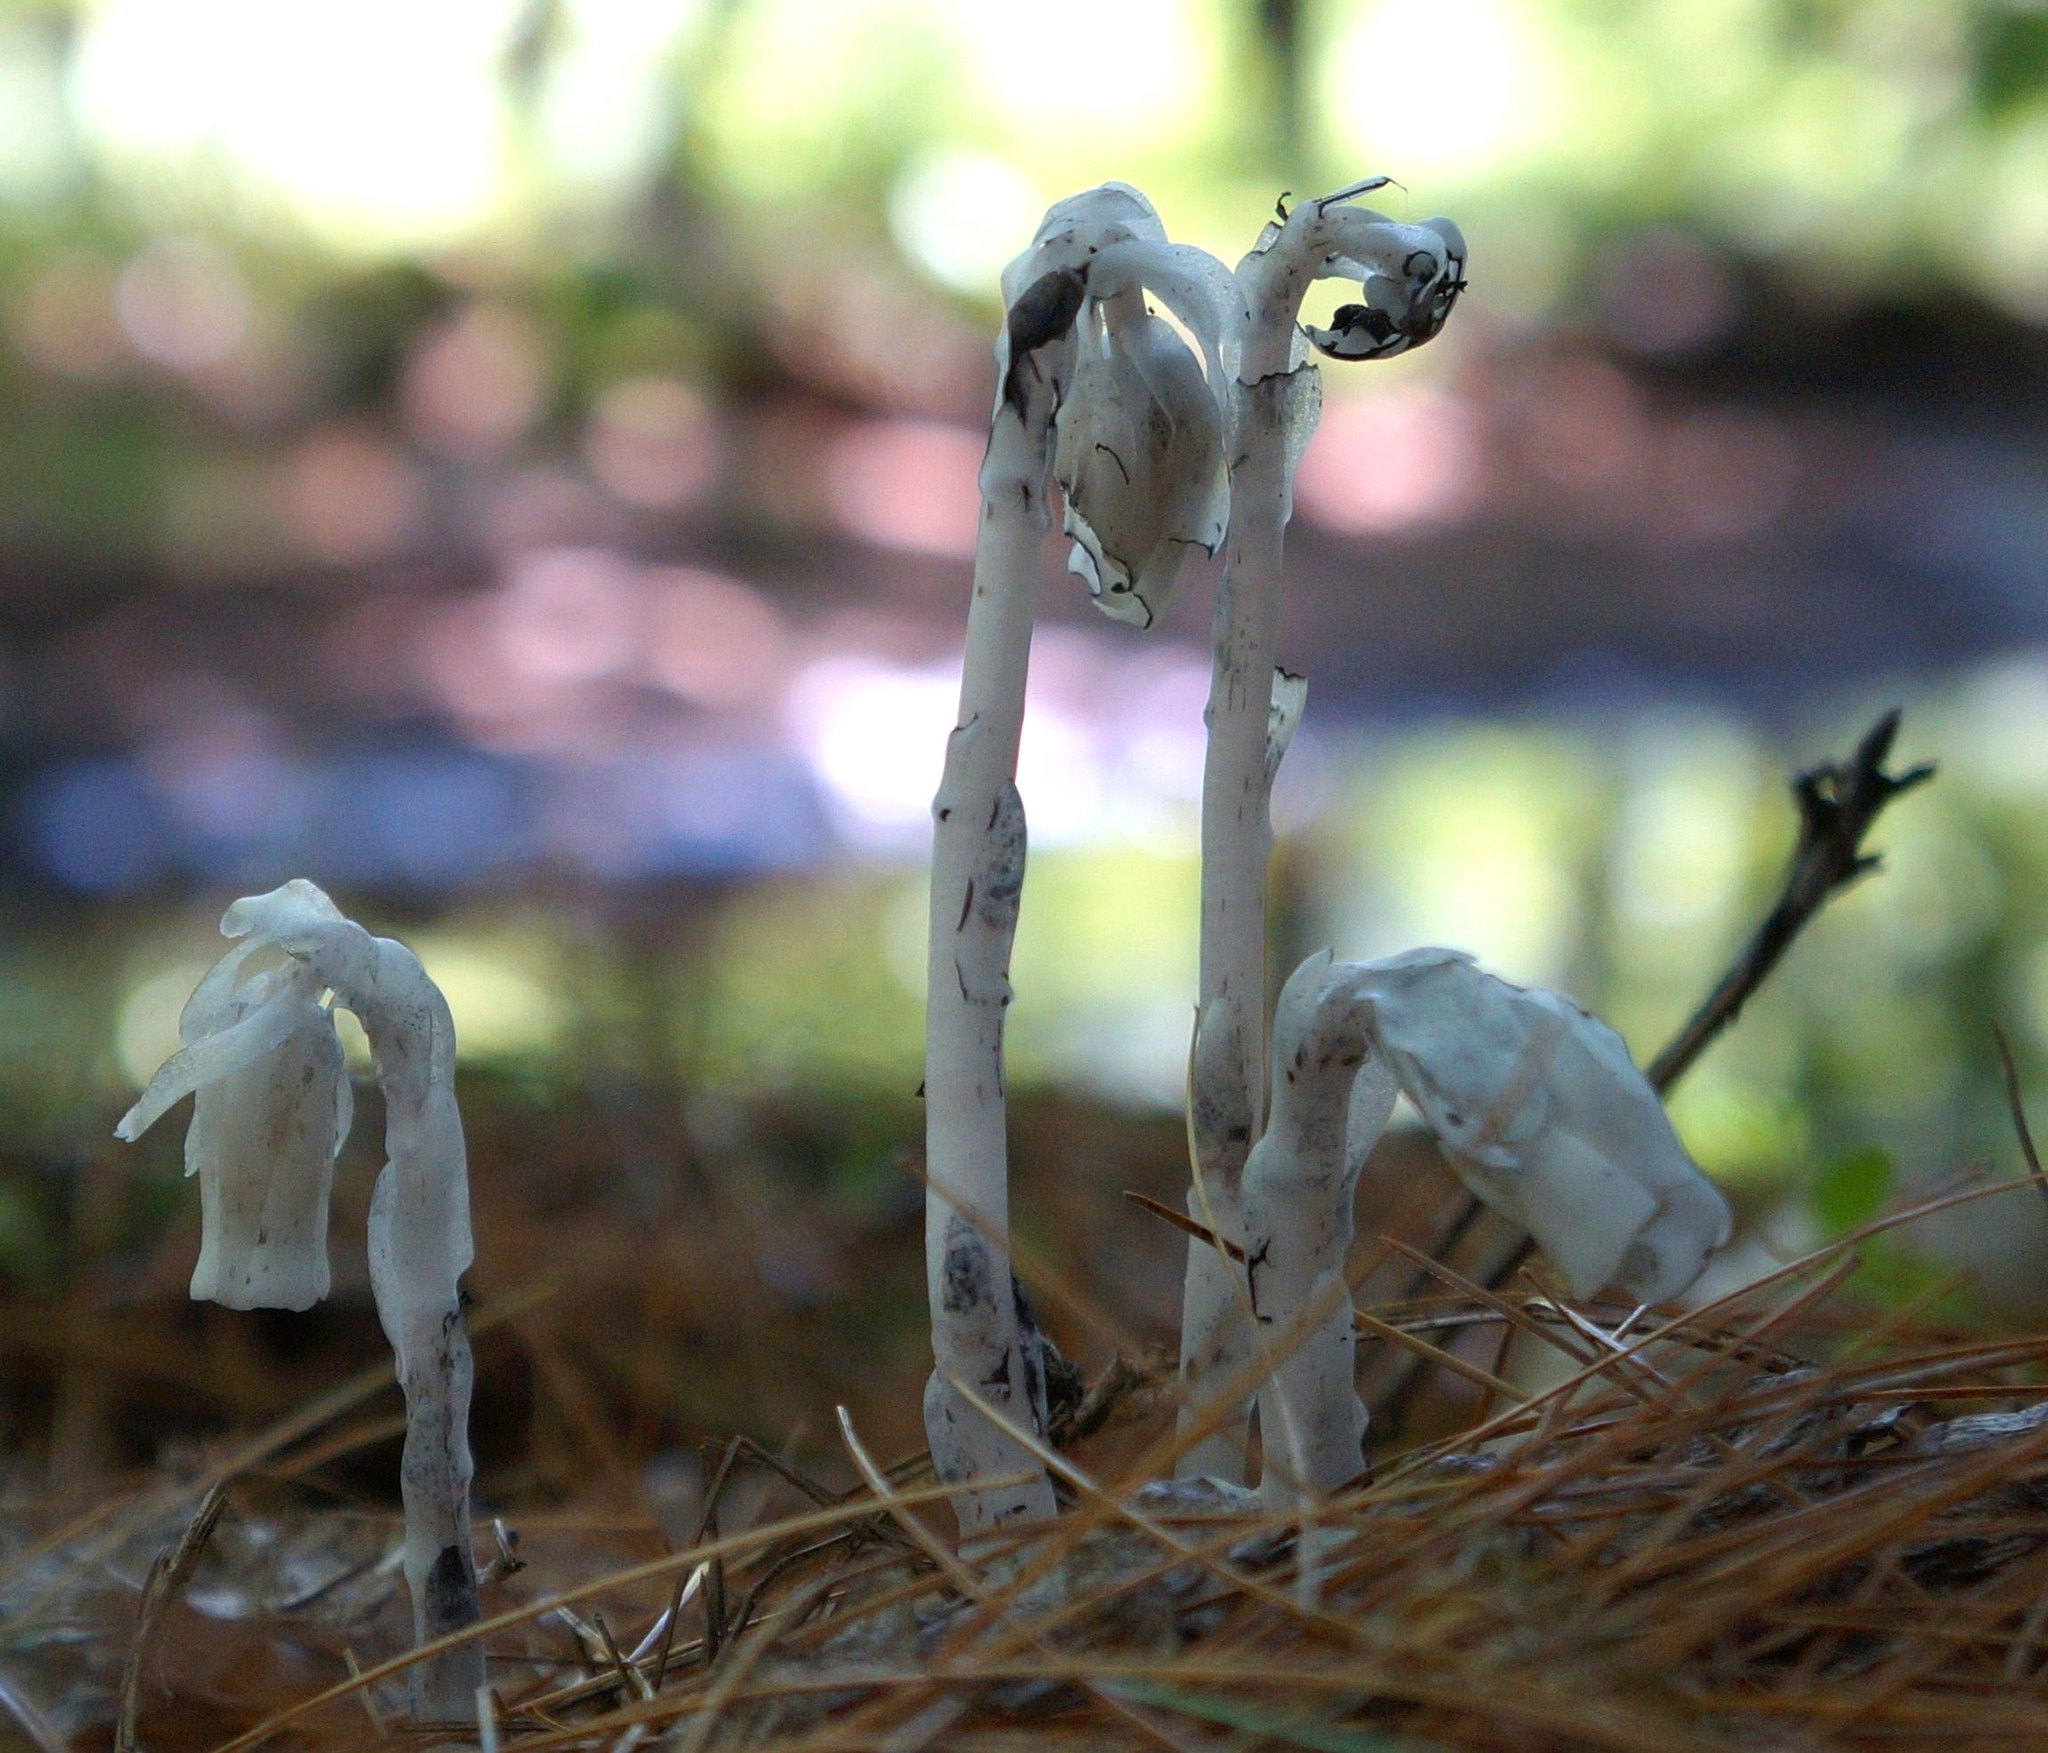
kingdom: Plantae
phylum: Tracheophyta
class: Magnoliopsida
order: Ericales
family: Ericaceae
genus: Monotropa
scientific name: Monotropa uniflora
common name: Convulsion root
